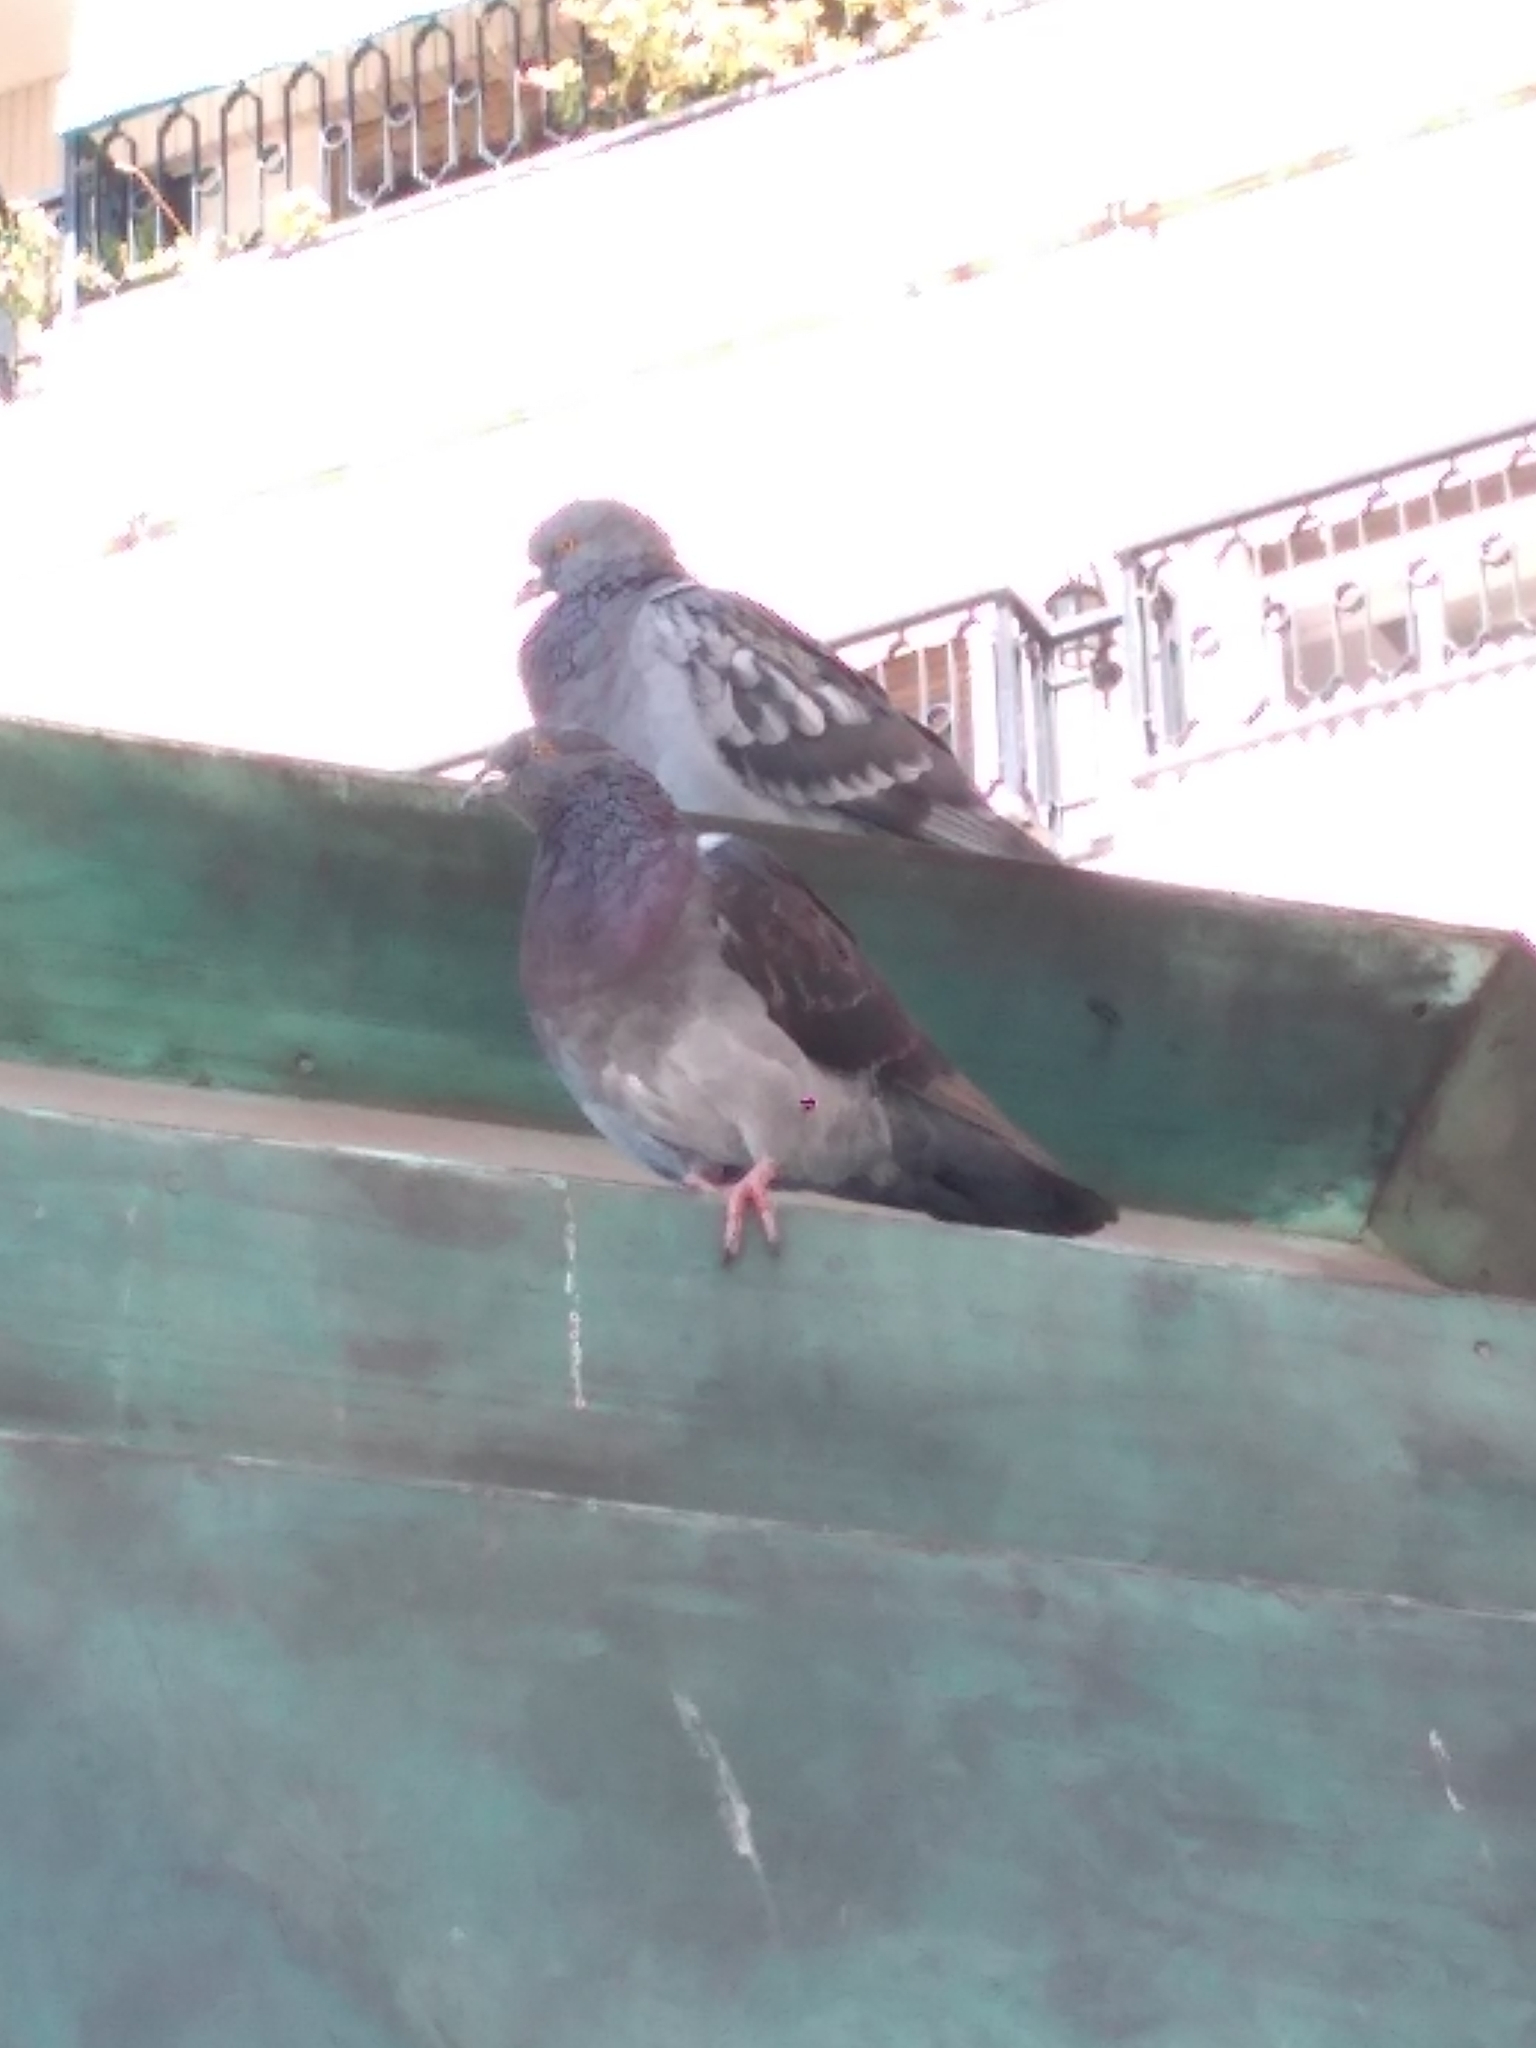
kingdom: Animalia
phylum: Chordata
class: Aves
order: Columbiformes
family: Columbidae
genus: Columba
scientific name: Columba livia
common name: Rock pigeon
